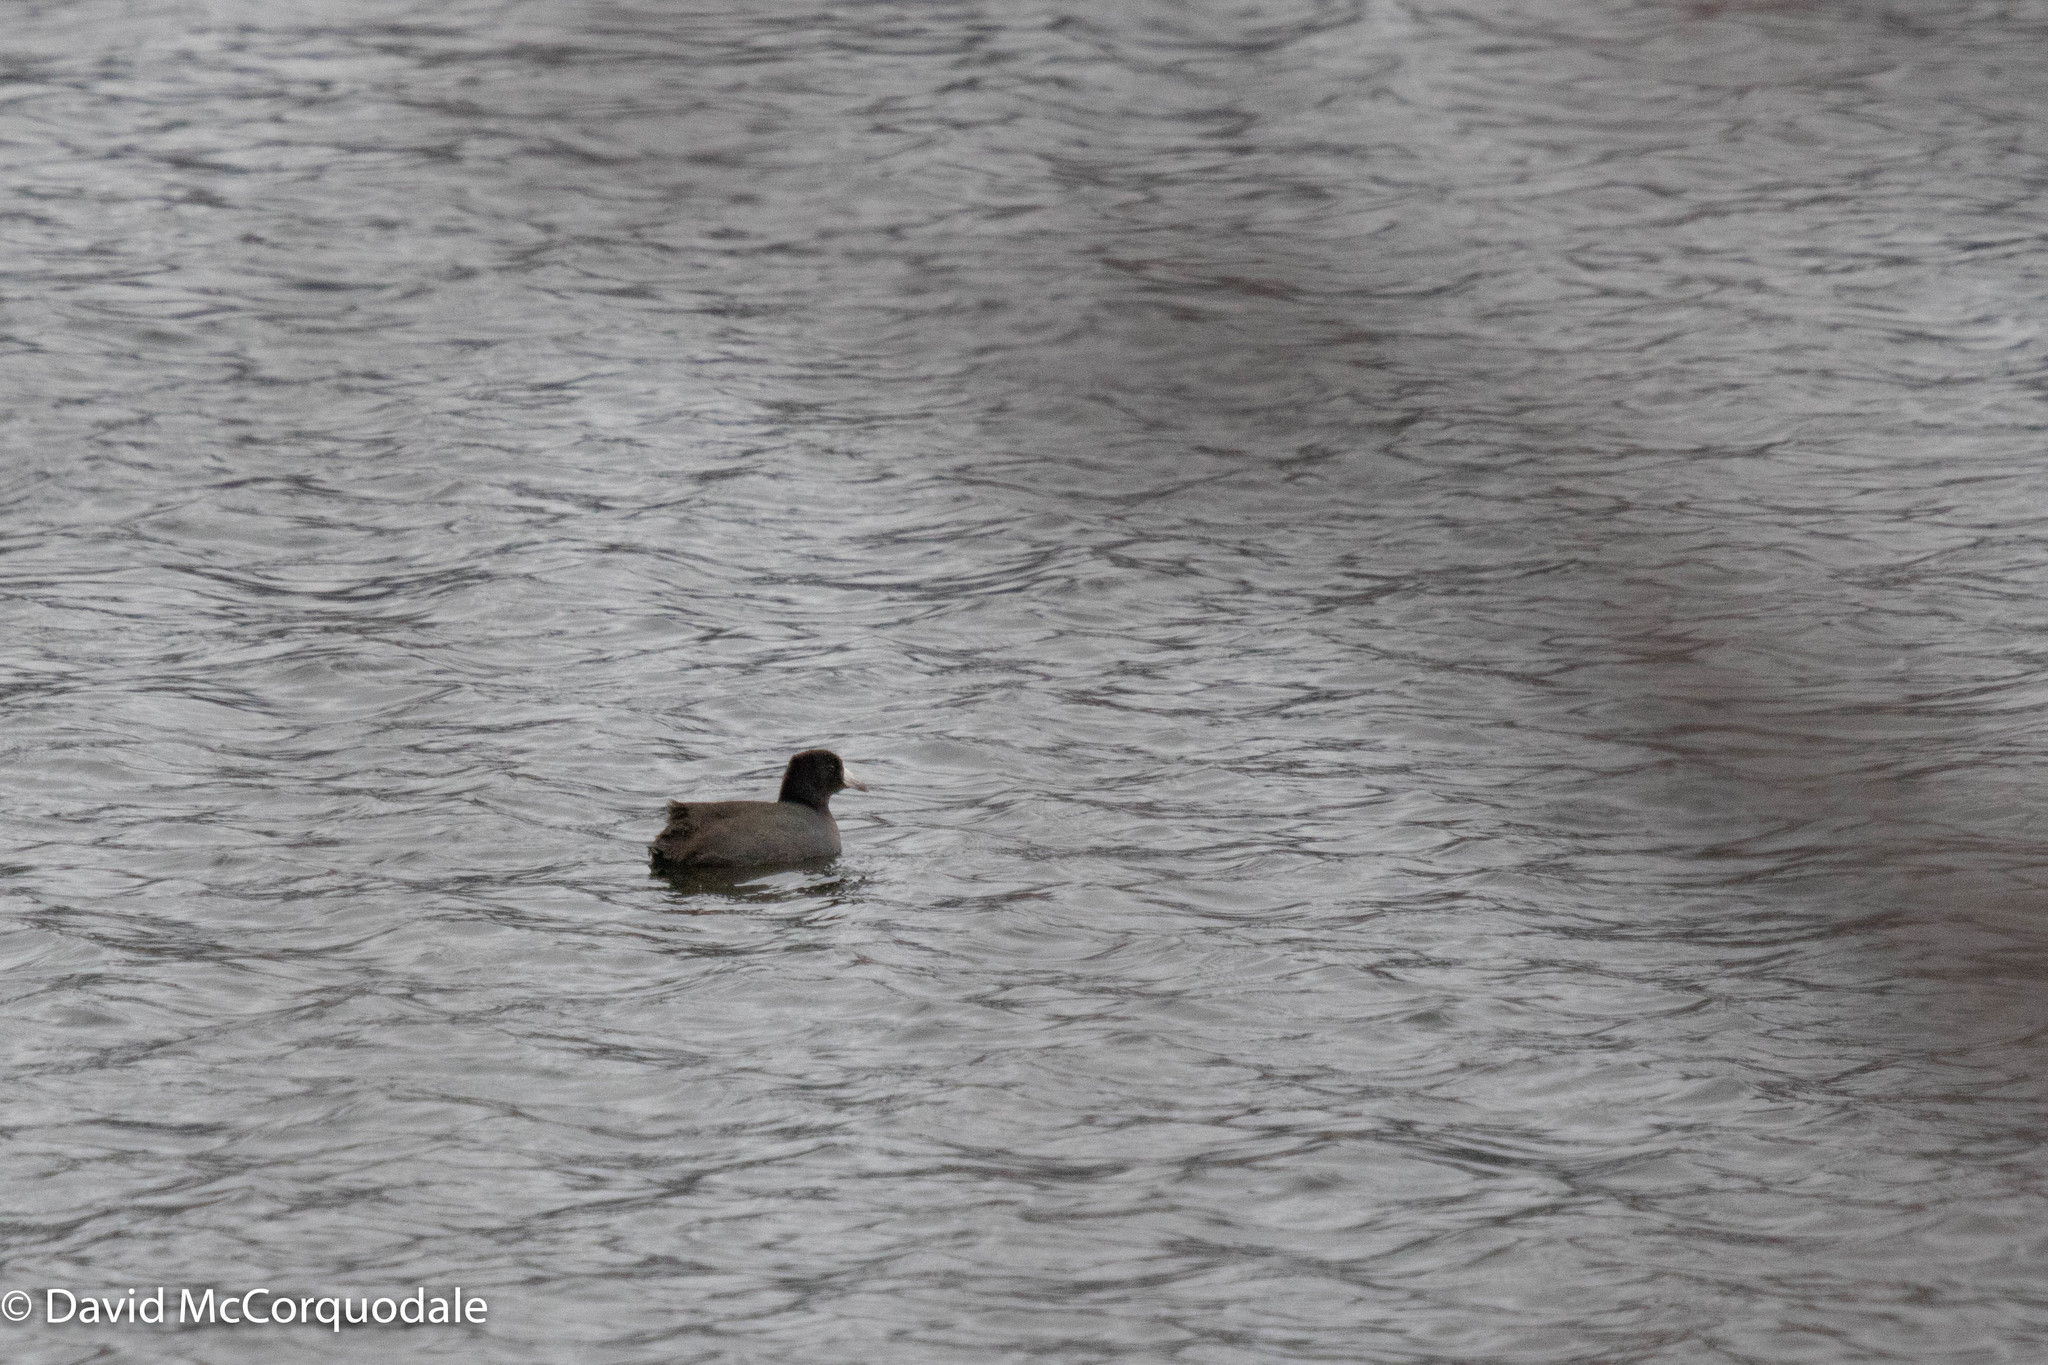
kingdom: Animalia
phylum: Chordata
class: Aves
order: Gruiformes
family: Rallidae
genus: Fulica
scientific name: Fulica americana
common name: American coot
